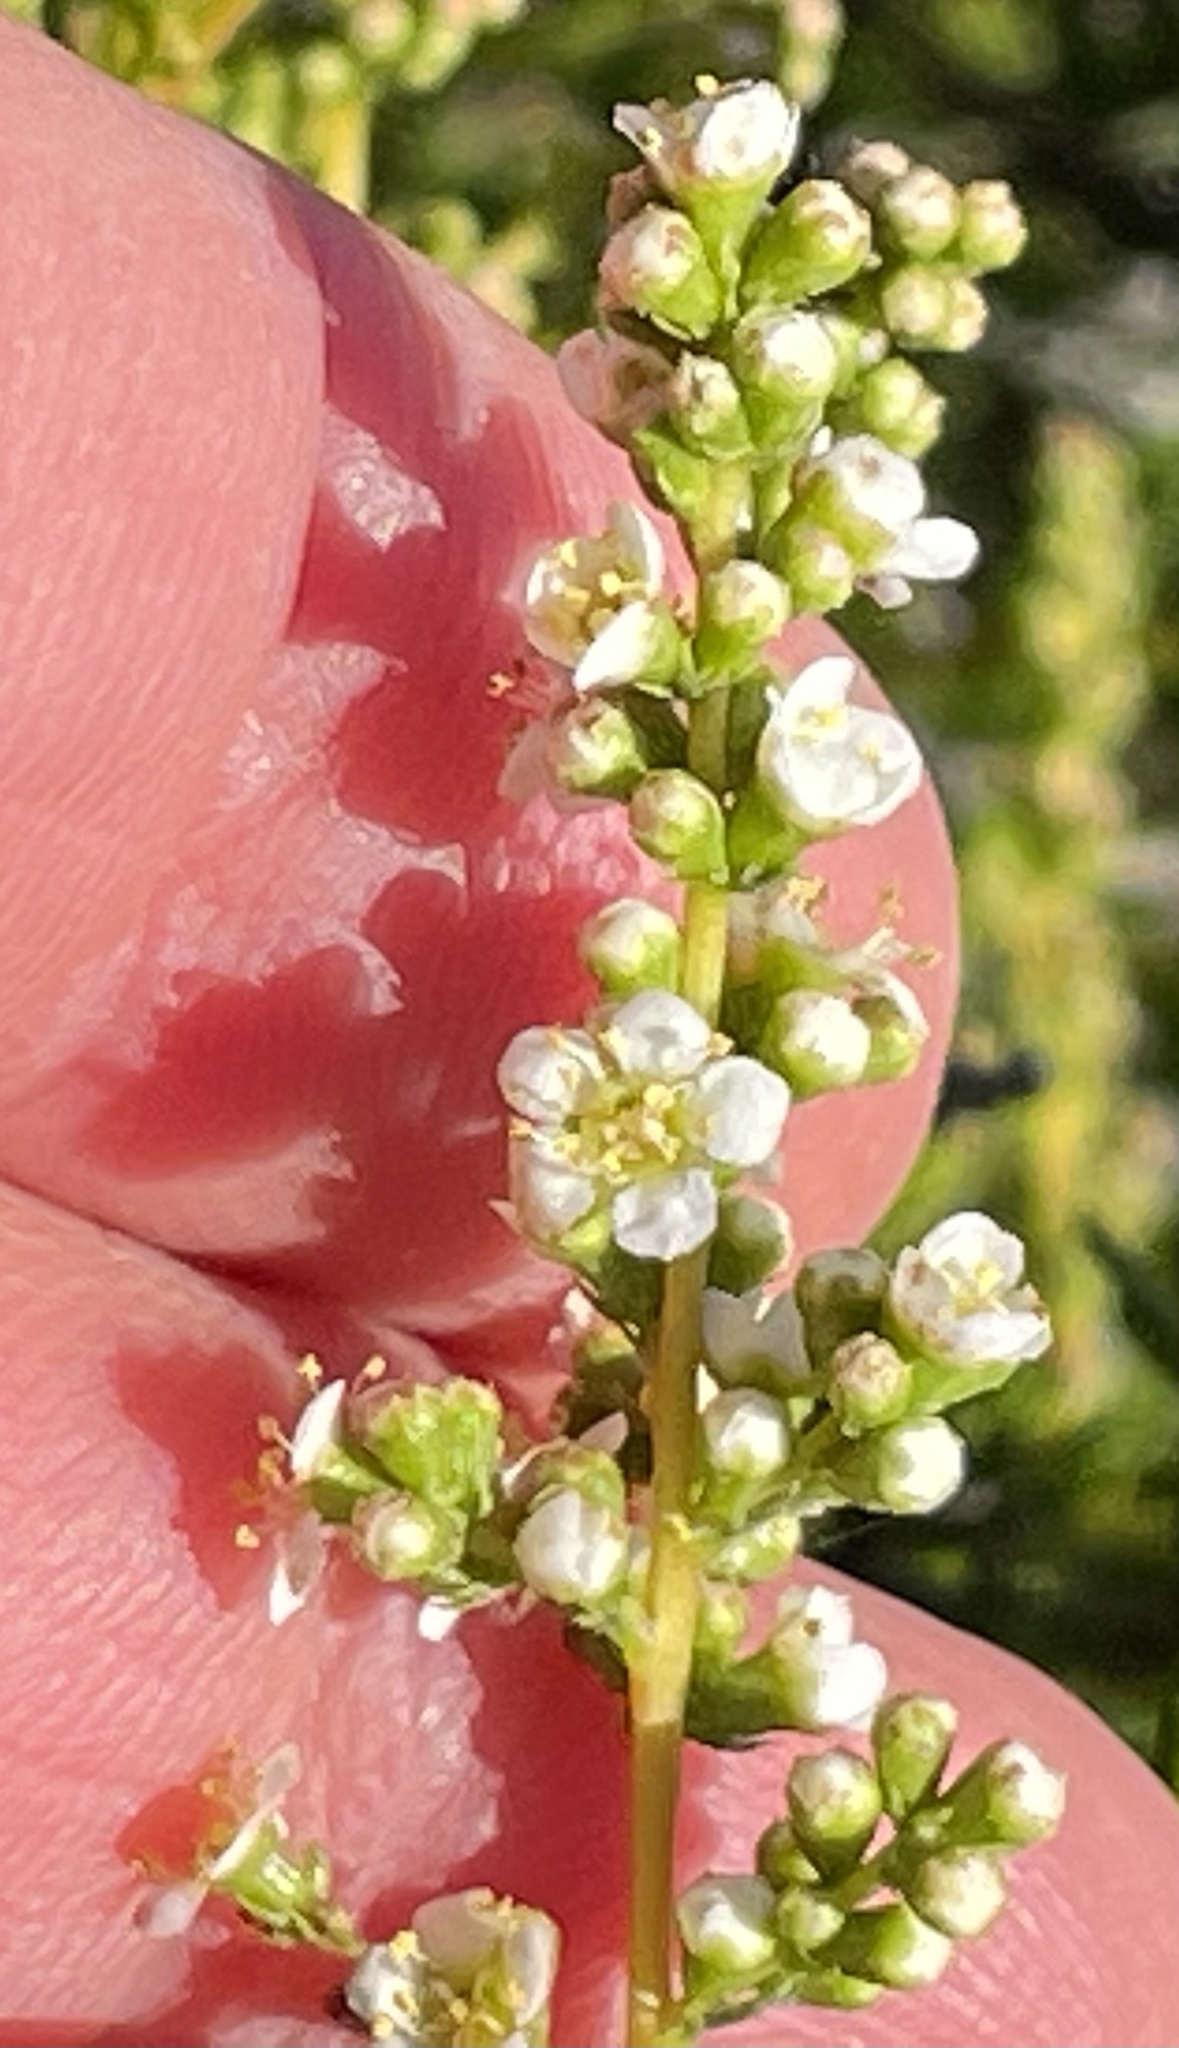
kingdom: Plantae
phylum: Tracheophyta
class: Magnoliopsida
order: Rosales
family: Rosaceae
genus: Adenostoma
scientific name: Adenostoma fasciculatum
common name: Chamise
